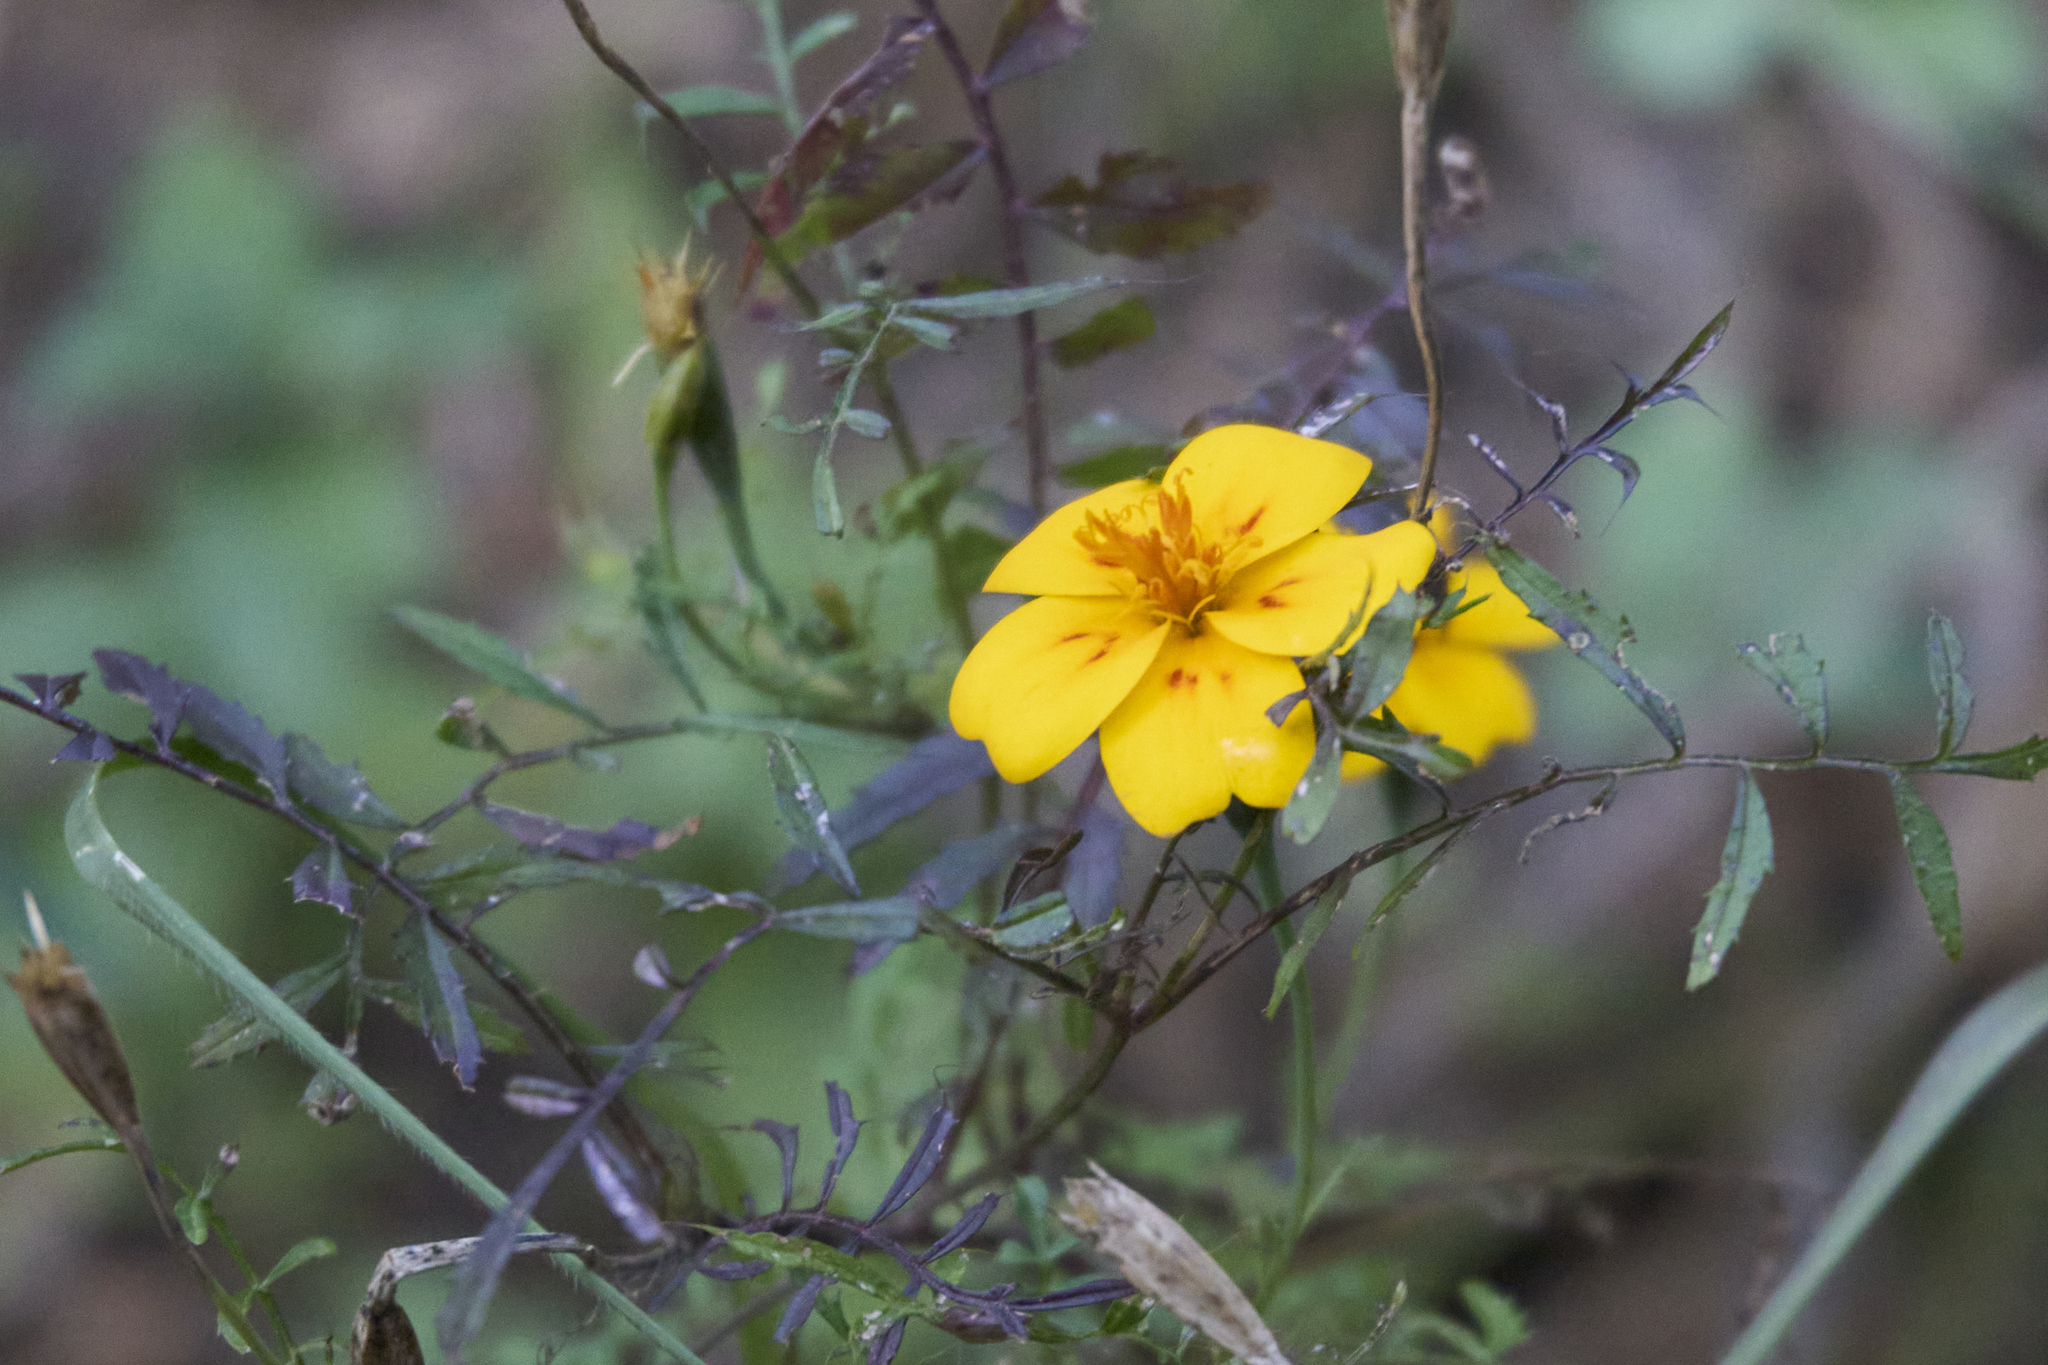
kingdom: Plantae
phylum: Tracheophyta
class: Magnoliopsida
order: Asterales
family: Asteraceae
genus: Tagetes
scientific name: Tagetes lunulata
